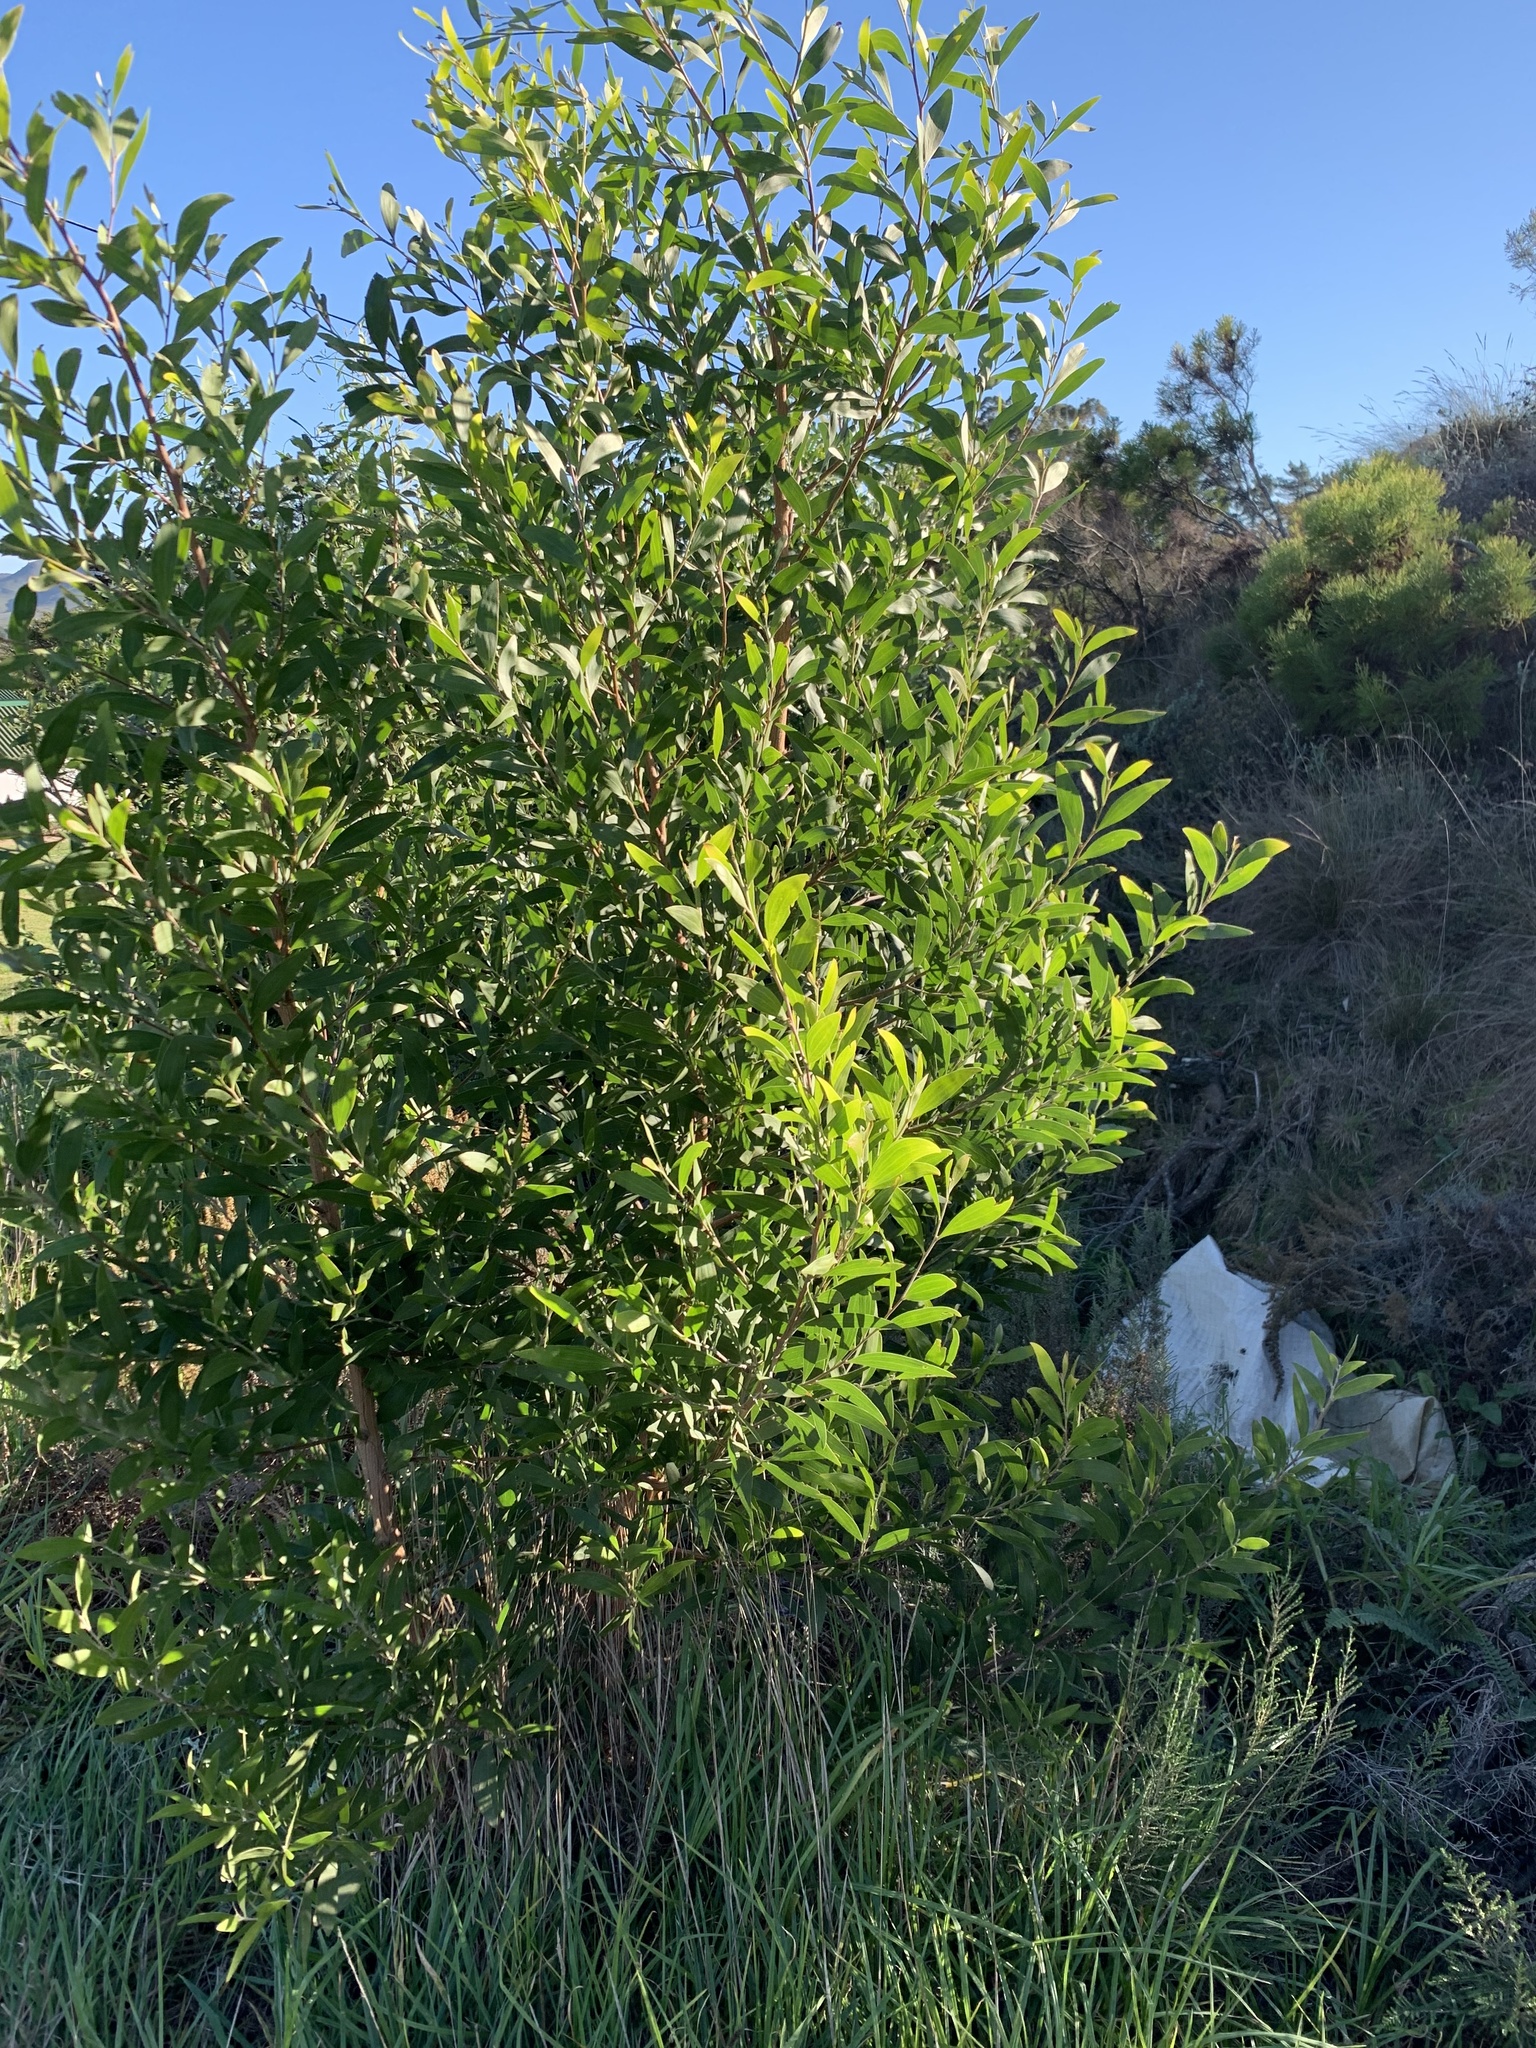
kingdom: Plantae
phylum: Tracheophyta
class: Magnoliopsida
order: Fabales
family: Fabaceae
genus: Acacia
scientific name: Acacia melanoxylon
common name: Blackwood
